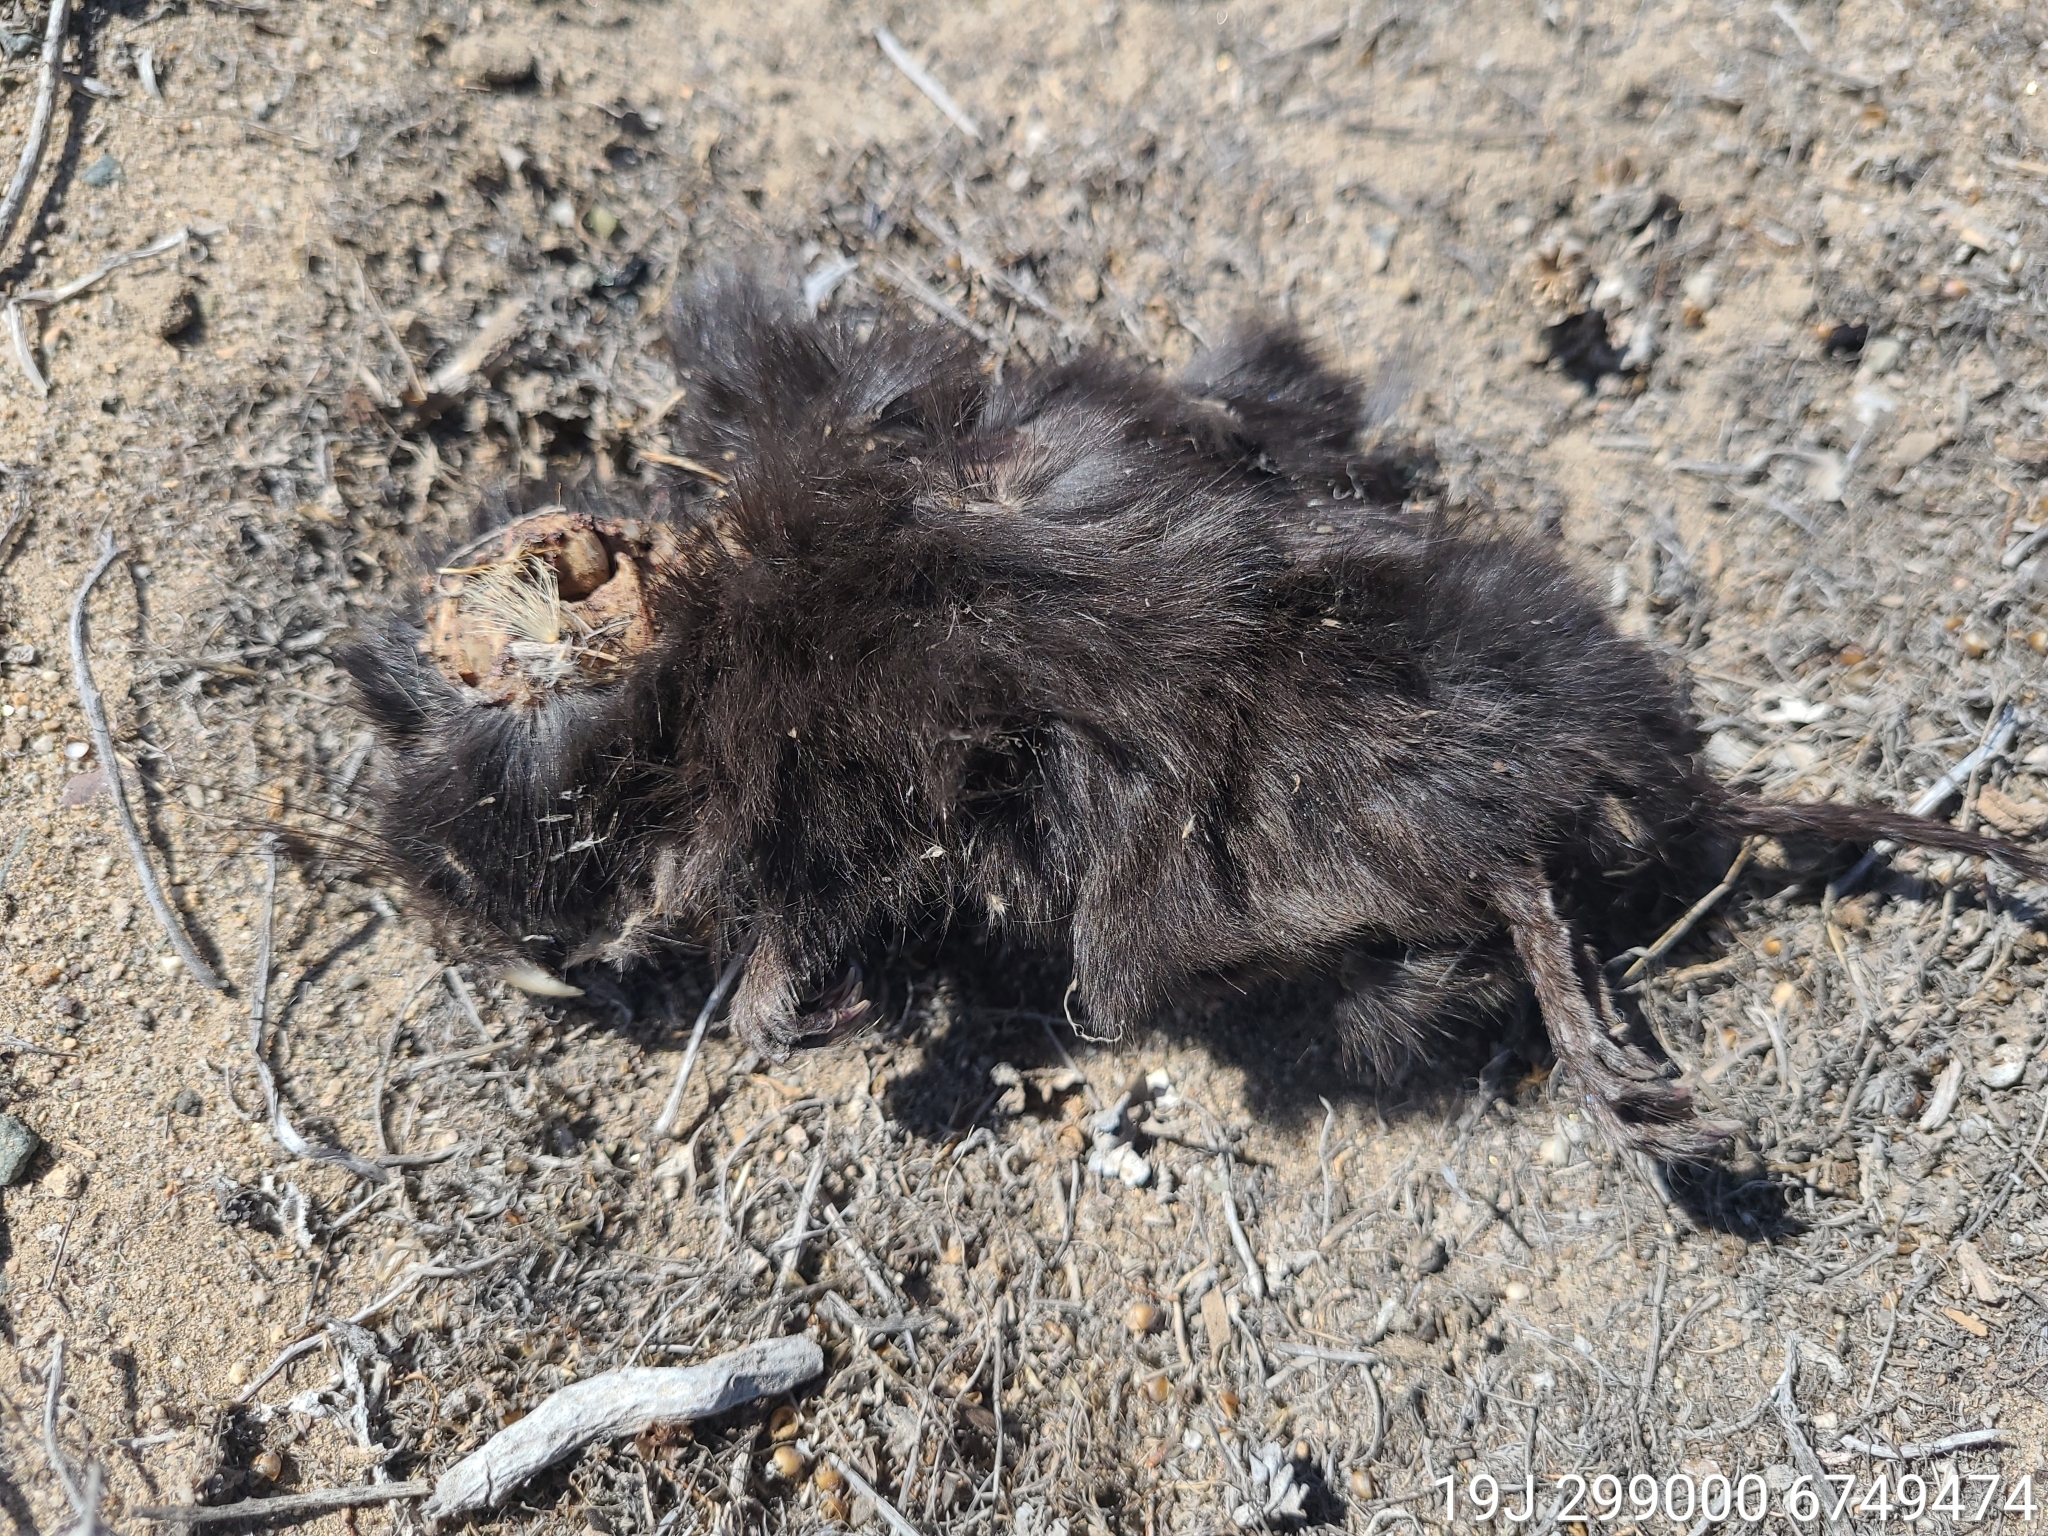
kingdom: Animalia
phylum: Chordata
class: Mammalia
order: Rodentia
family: Octodontidae
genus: Spalacopus
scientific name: Spalacopus cyanus
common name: Coruro
